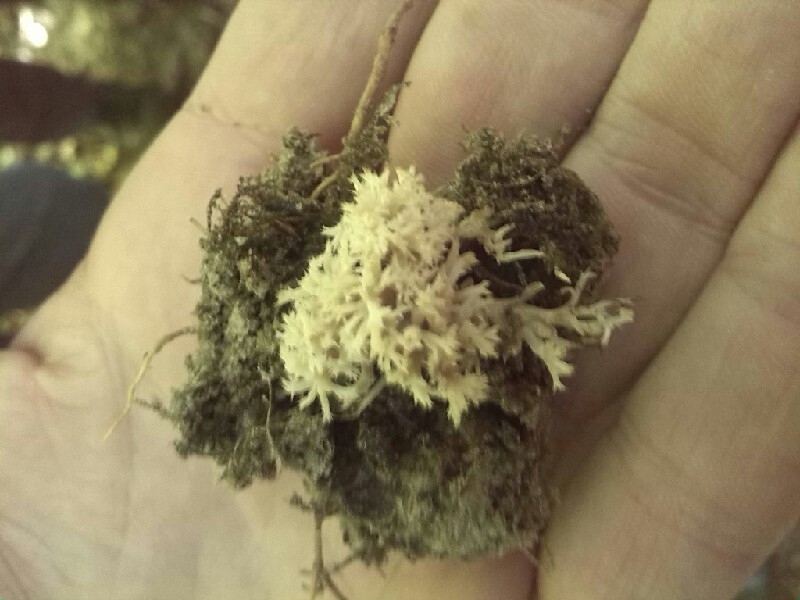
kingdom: Fungi
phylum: Basidiomycota
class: Agaricomycetes
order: Cantharellales
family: Hydnaceae
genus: Clavulina
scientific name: Clavulina coralloides
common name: Crested coral
